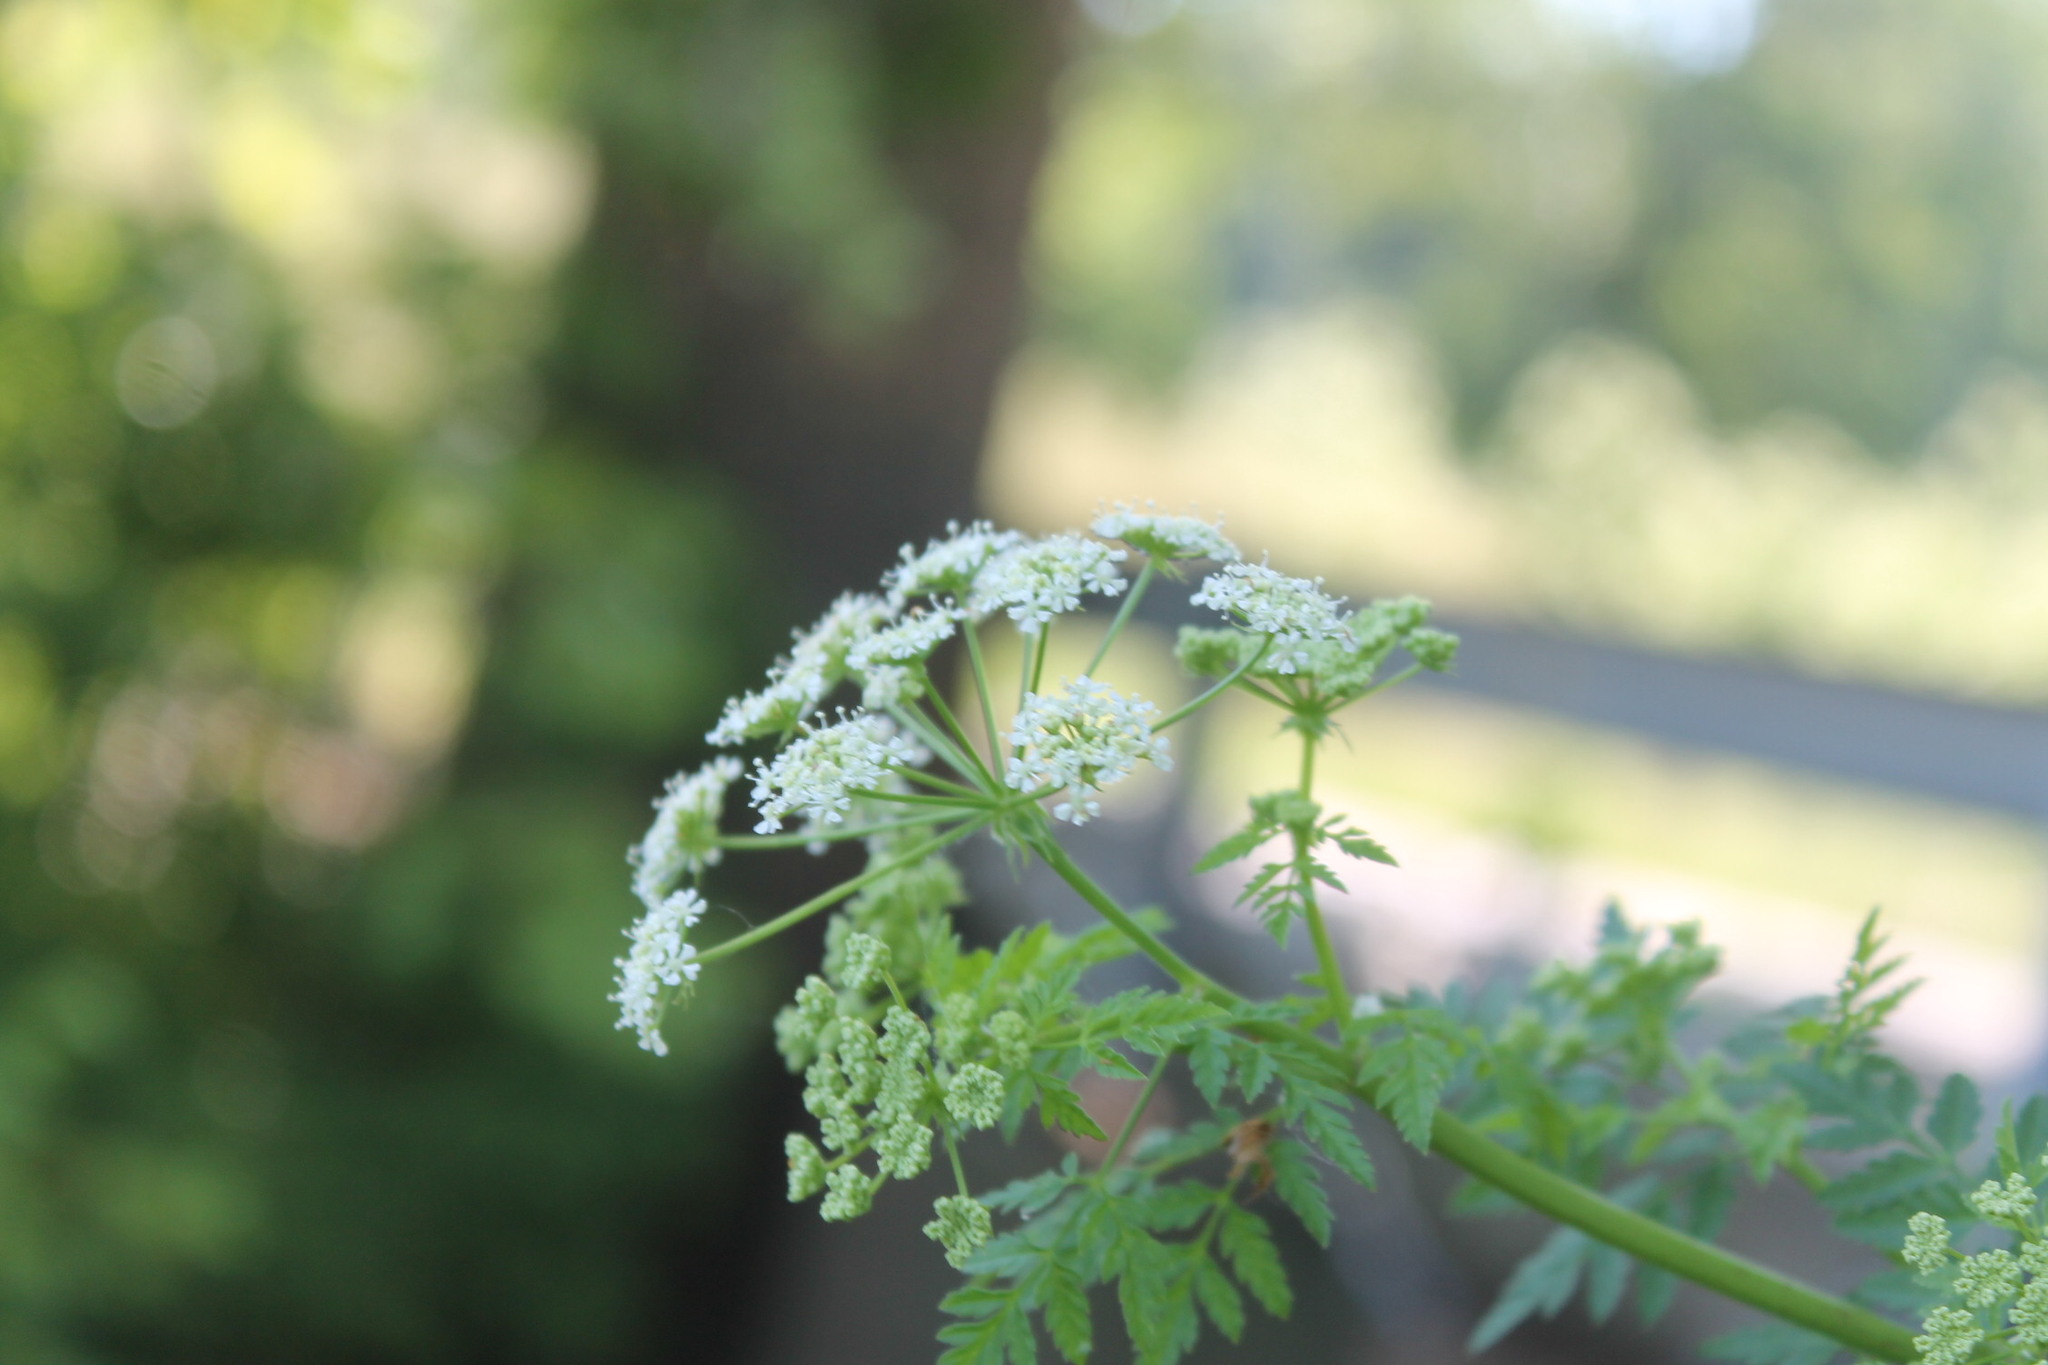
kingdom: Plantae
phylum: Tracheophyta
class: Magnoliopsida
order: Apiales
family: Apiaceae
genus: Conium
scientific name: Conium maculatum
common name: Hemlock
